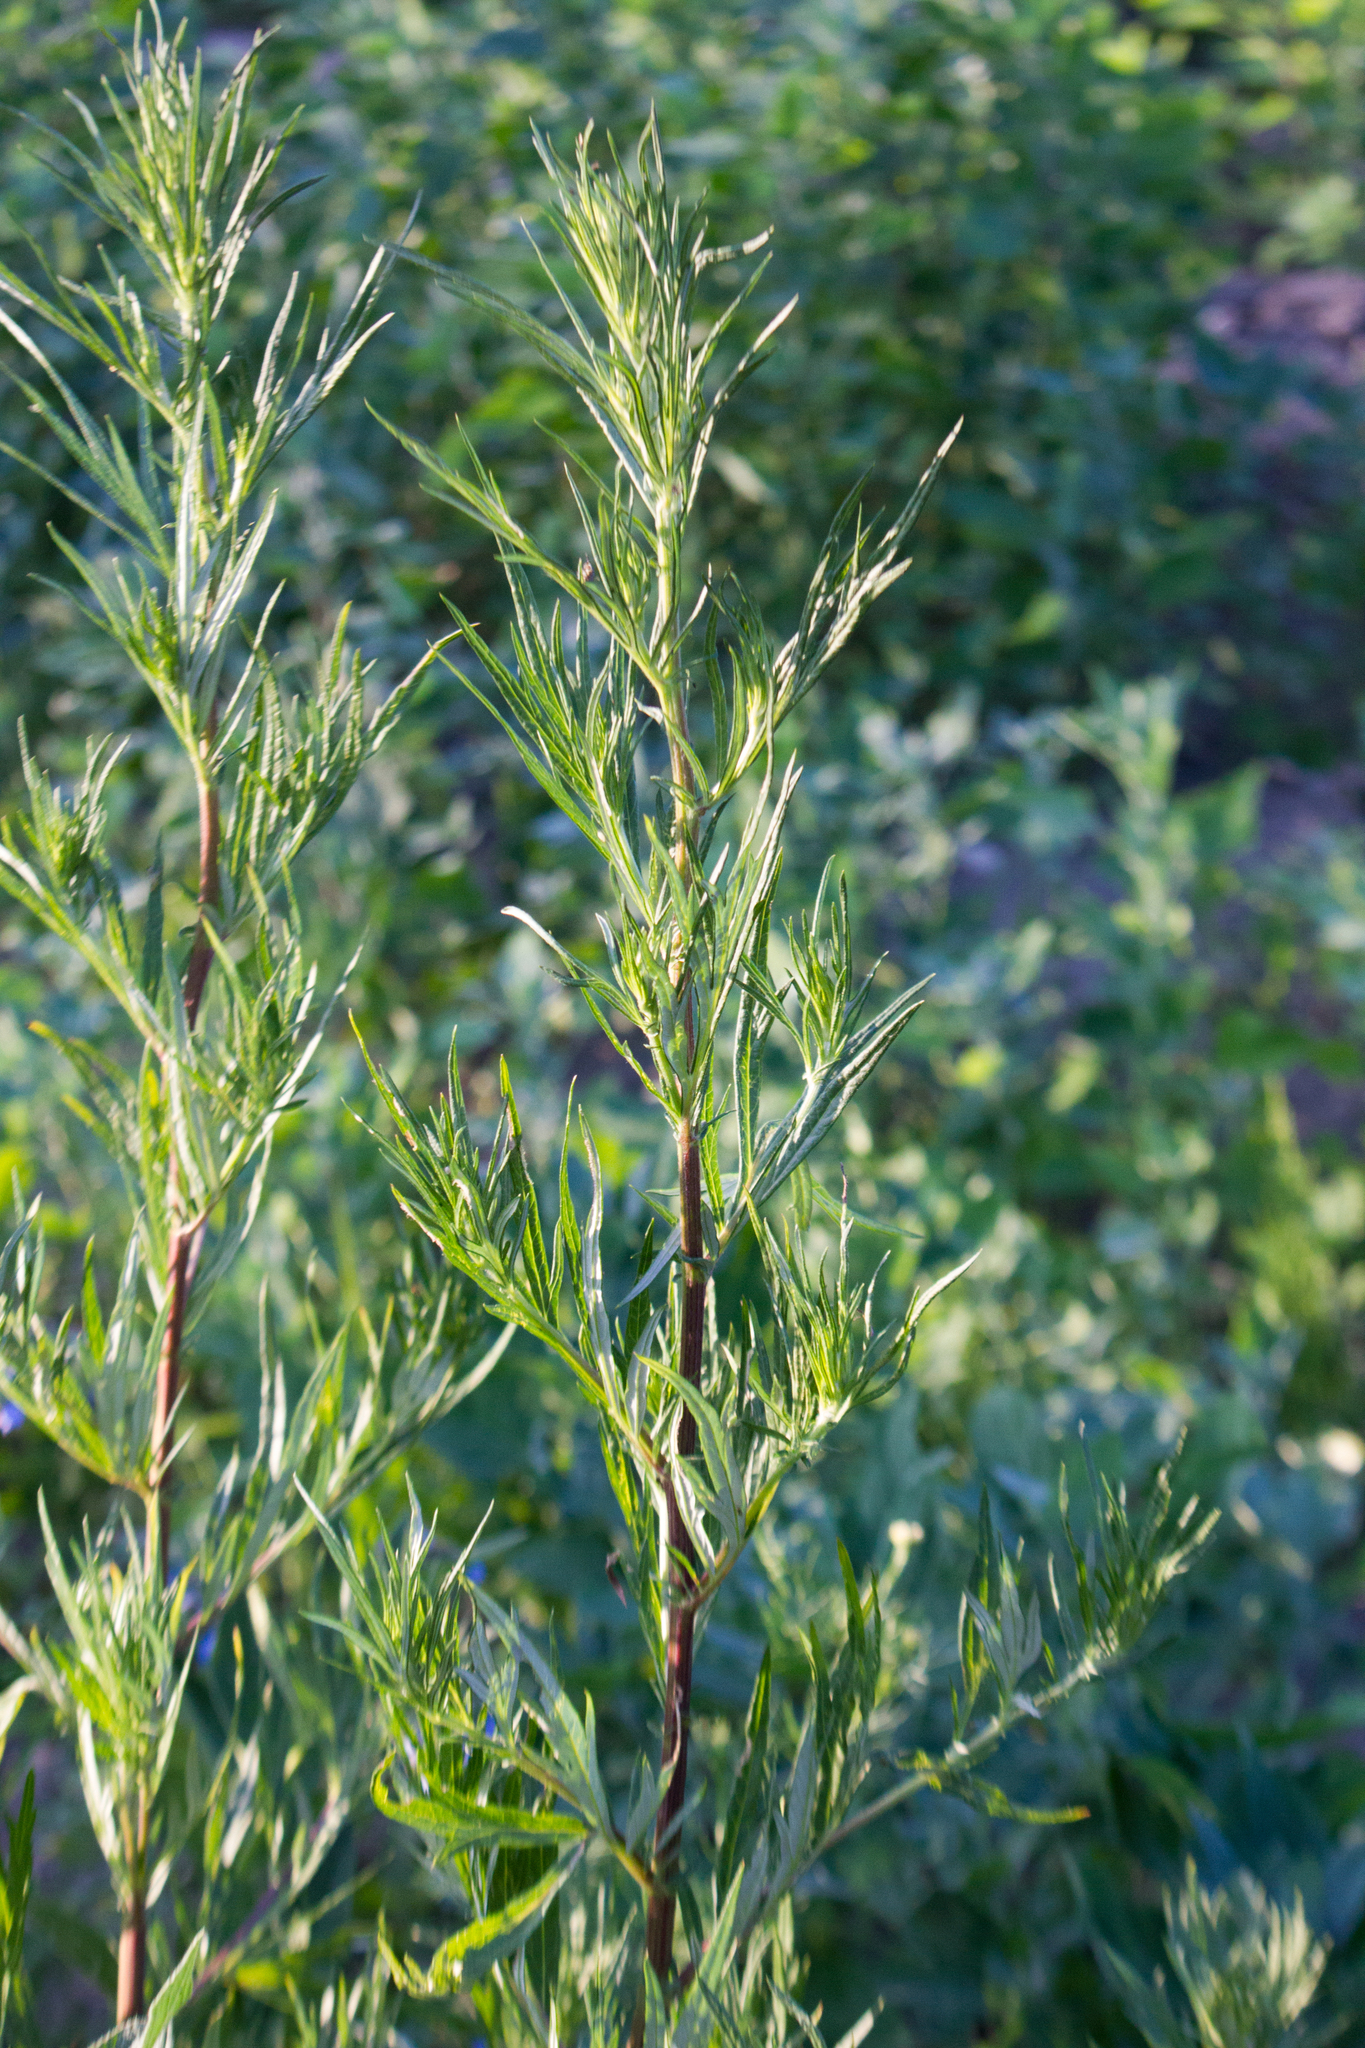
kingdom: Plantae
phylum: Tracheophyta
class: Magnoliopsida
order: Asterales
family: Asteraceae
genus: Artemisia
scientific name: Artemisia vulgaris
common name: Mugwort
